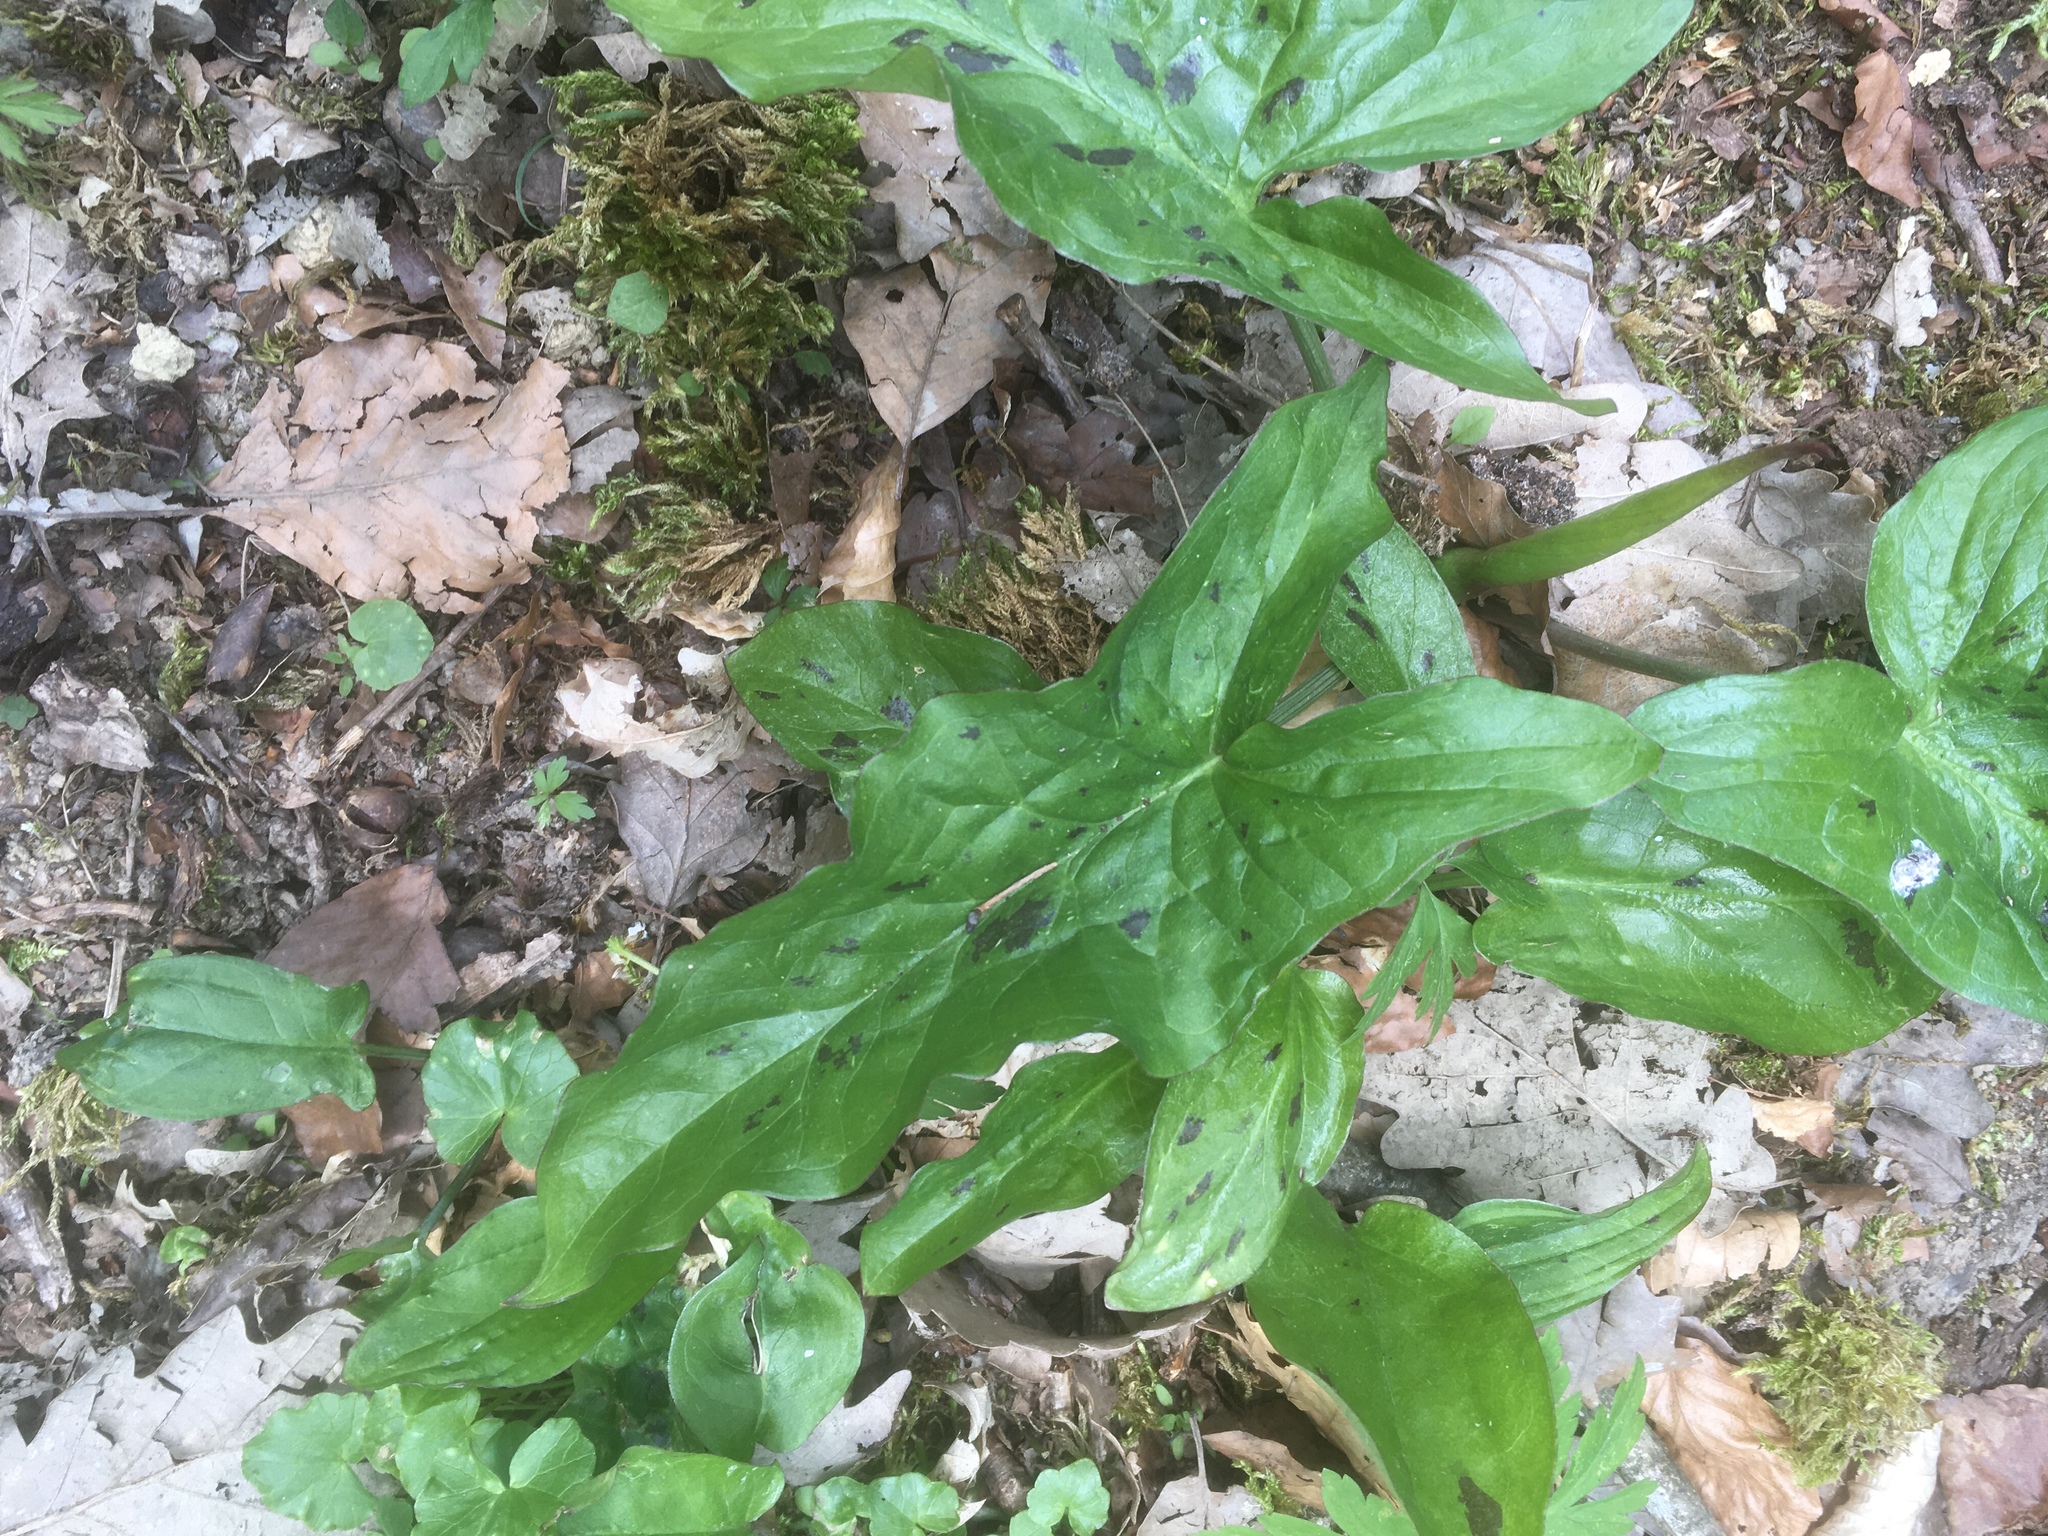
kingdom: Plantae
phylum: Tracheophyta
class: Liliopsida
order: Alismatales
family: Araceae
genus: Arum
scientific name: Arum maculatum
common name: Lords-and-ladies
